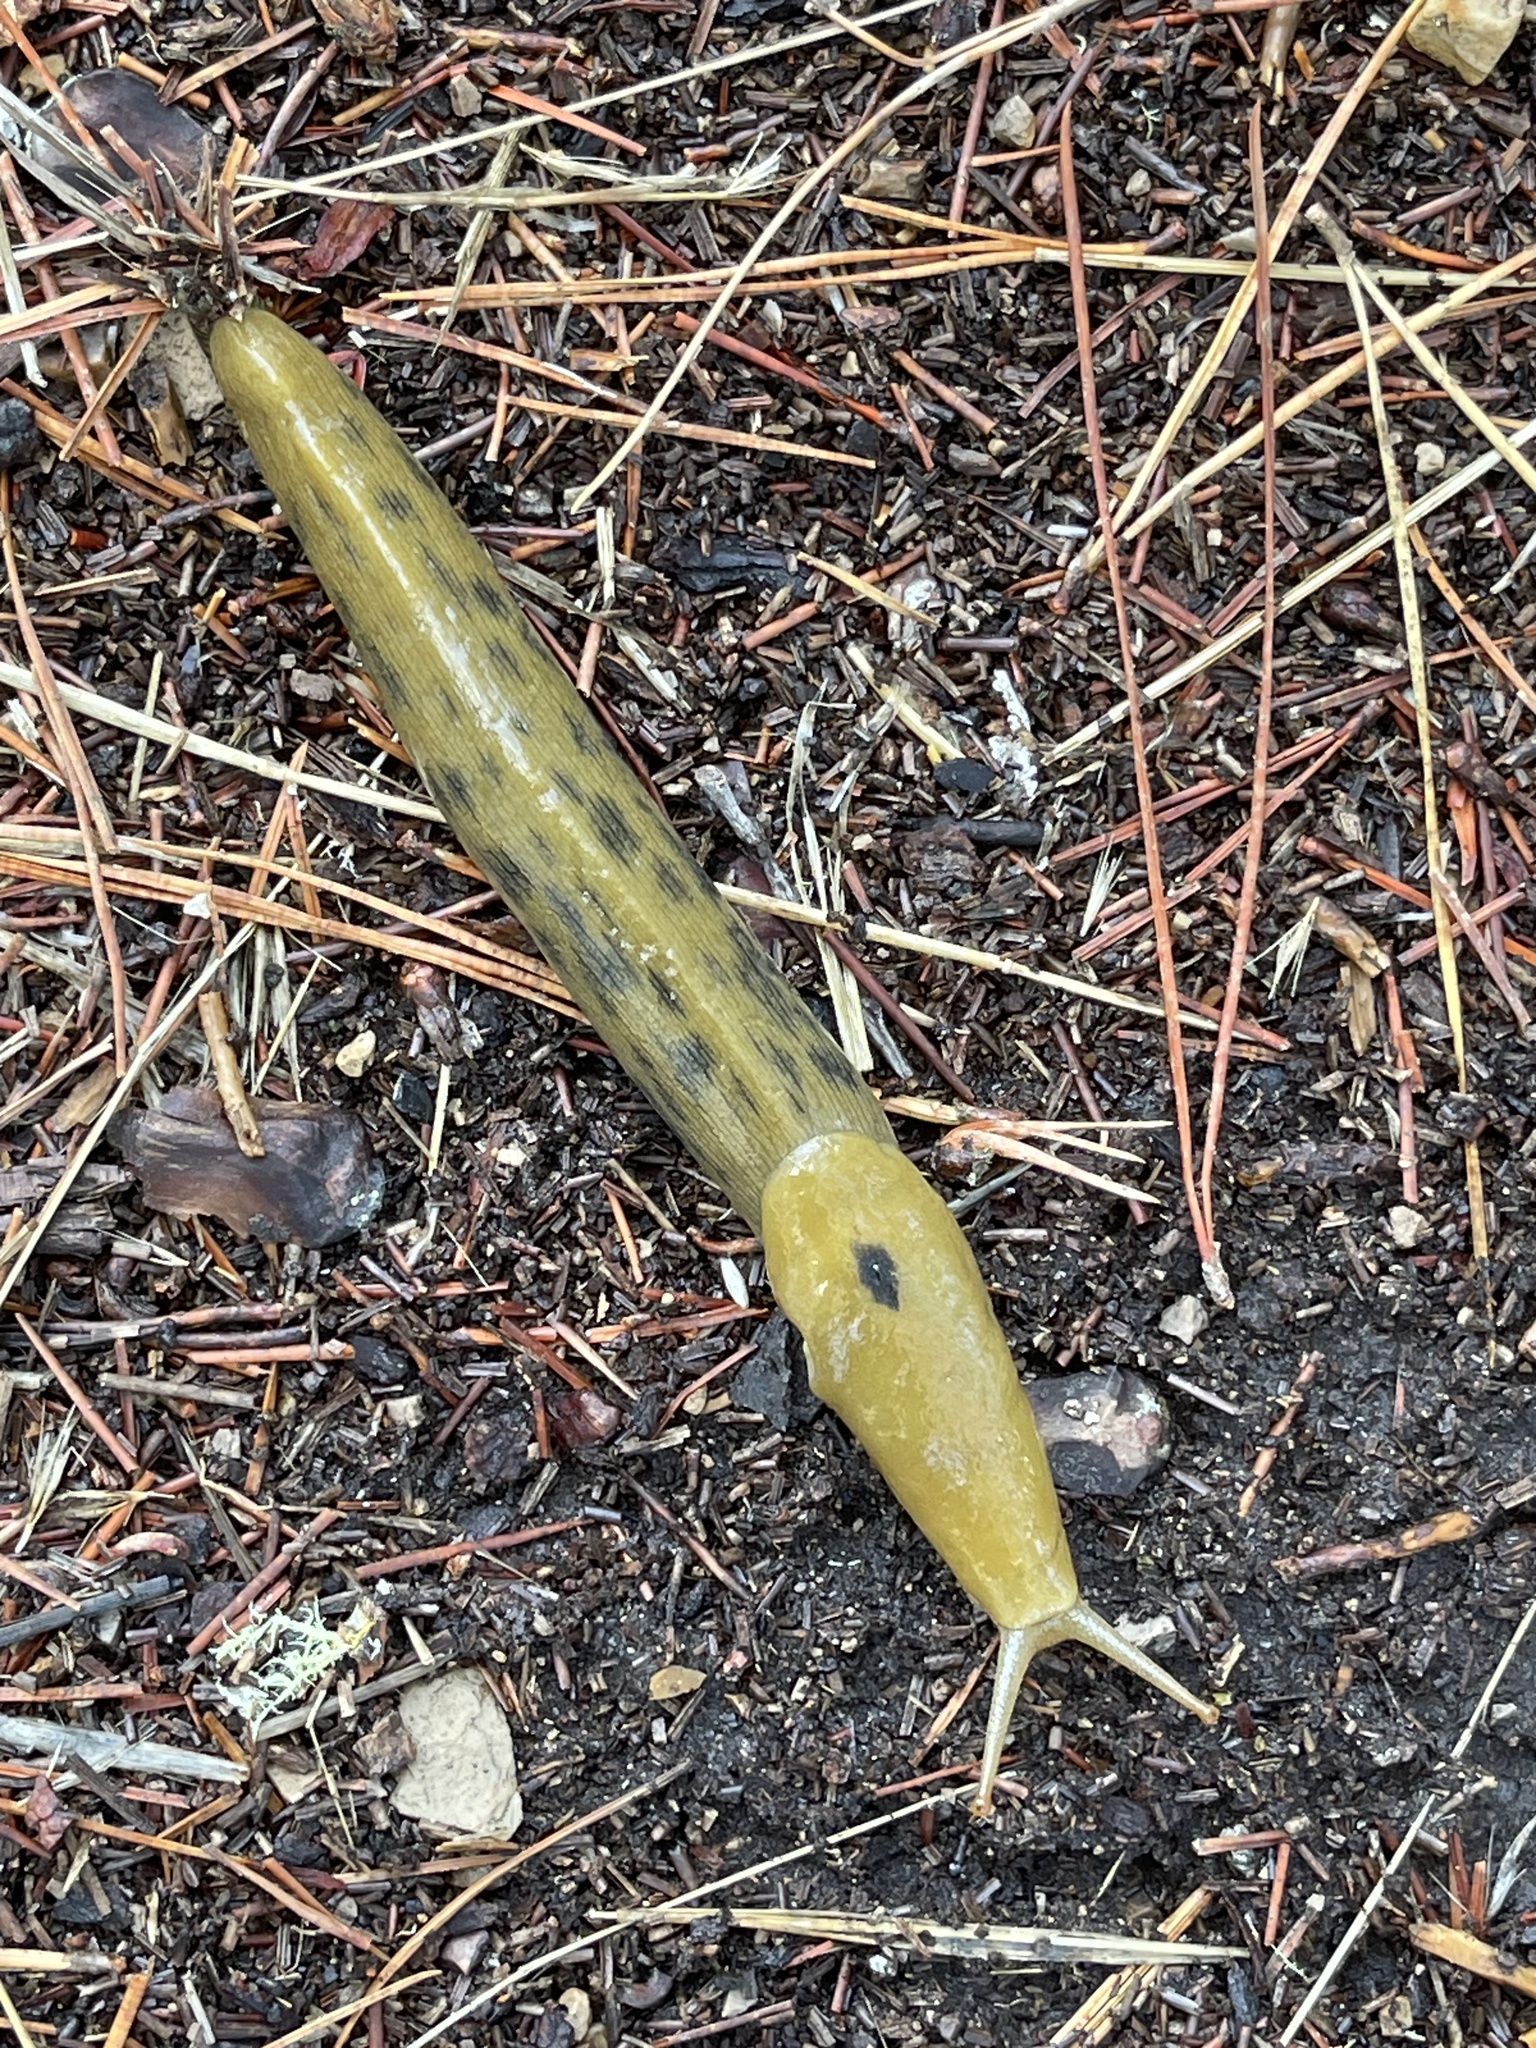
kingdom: Animalia
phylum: Mollusca
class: Gastropoda
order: Stylommatophora
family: Ariolimacidae
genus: Ariolimax
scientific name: Ariolimax buttoni
